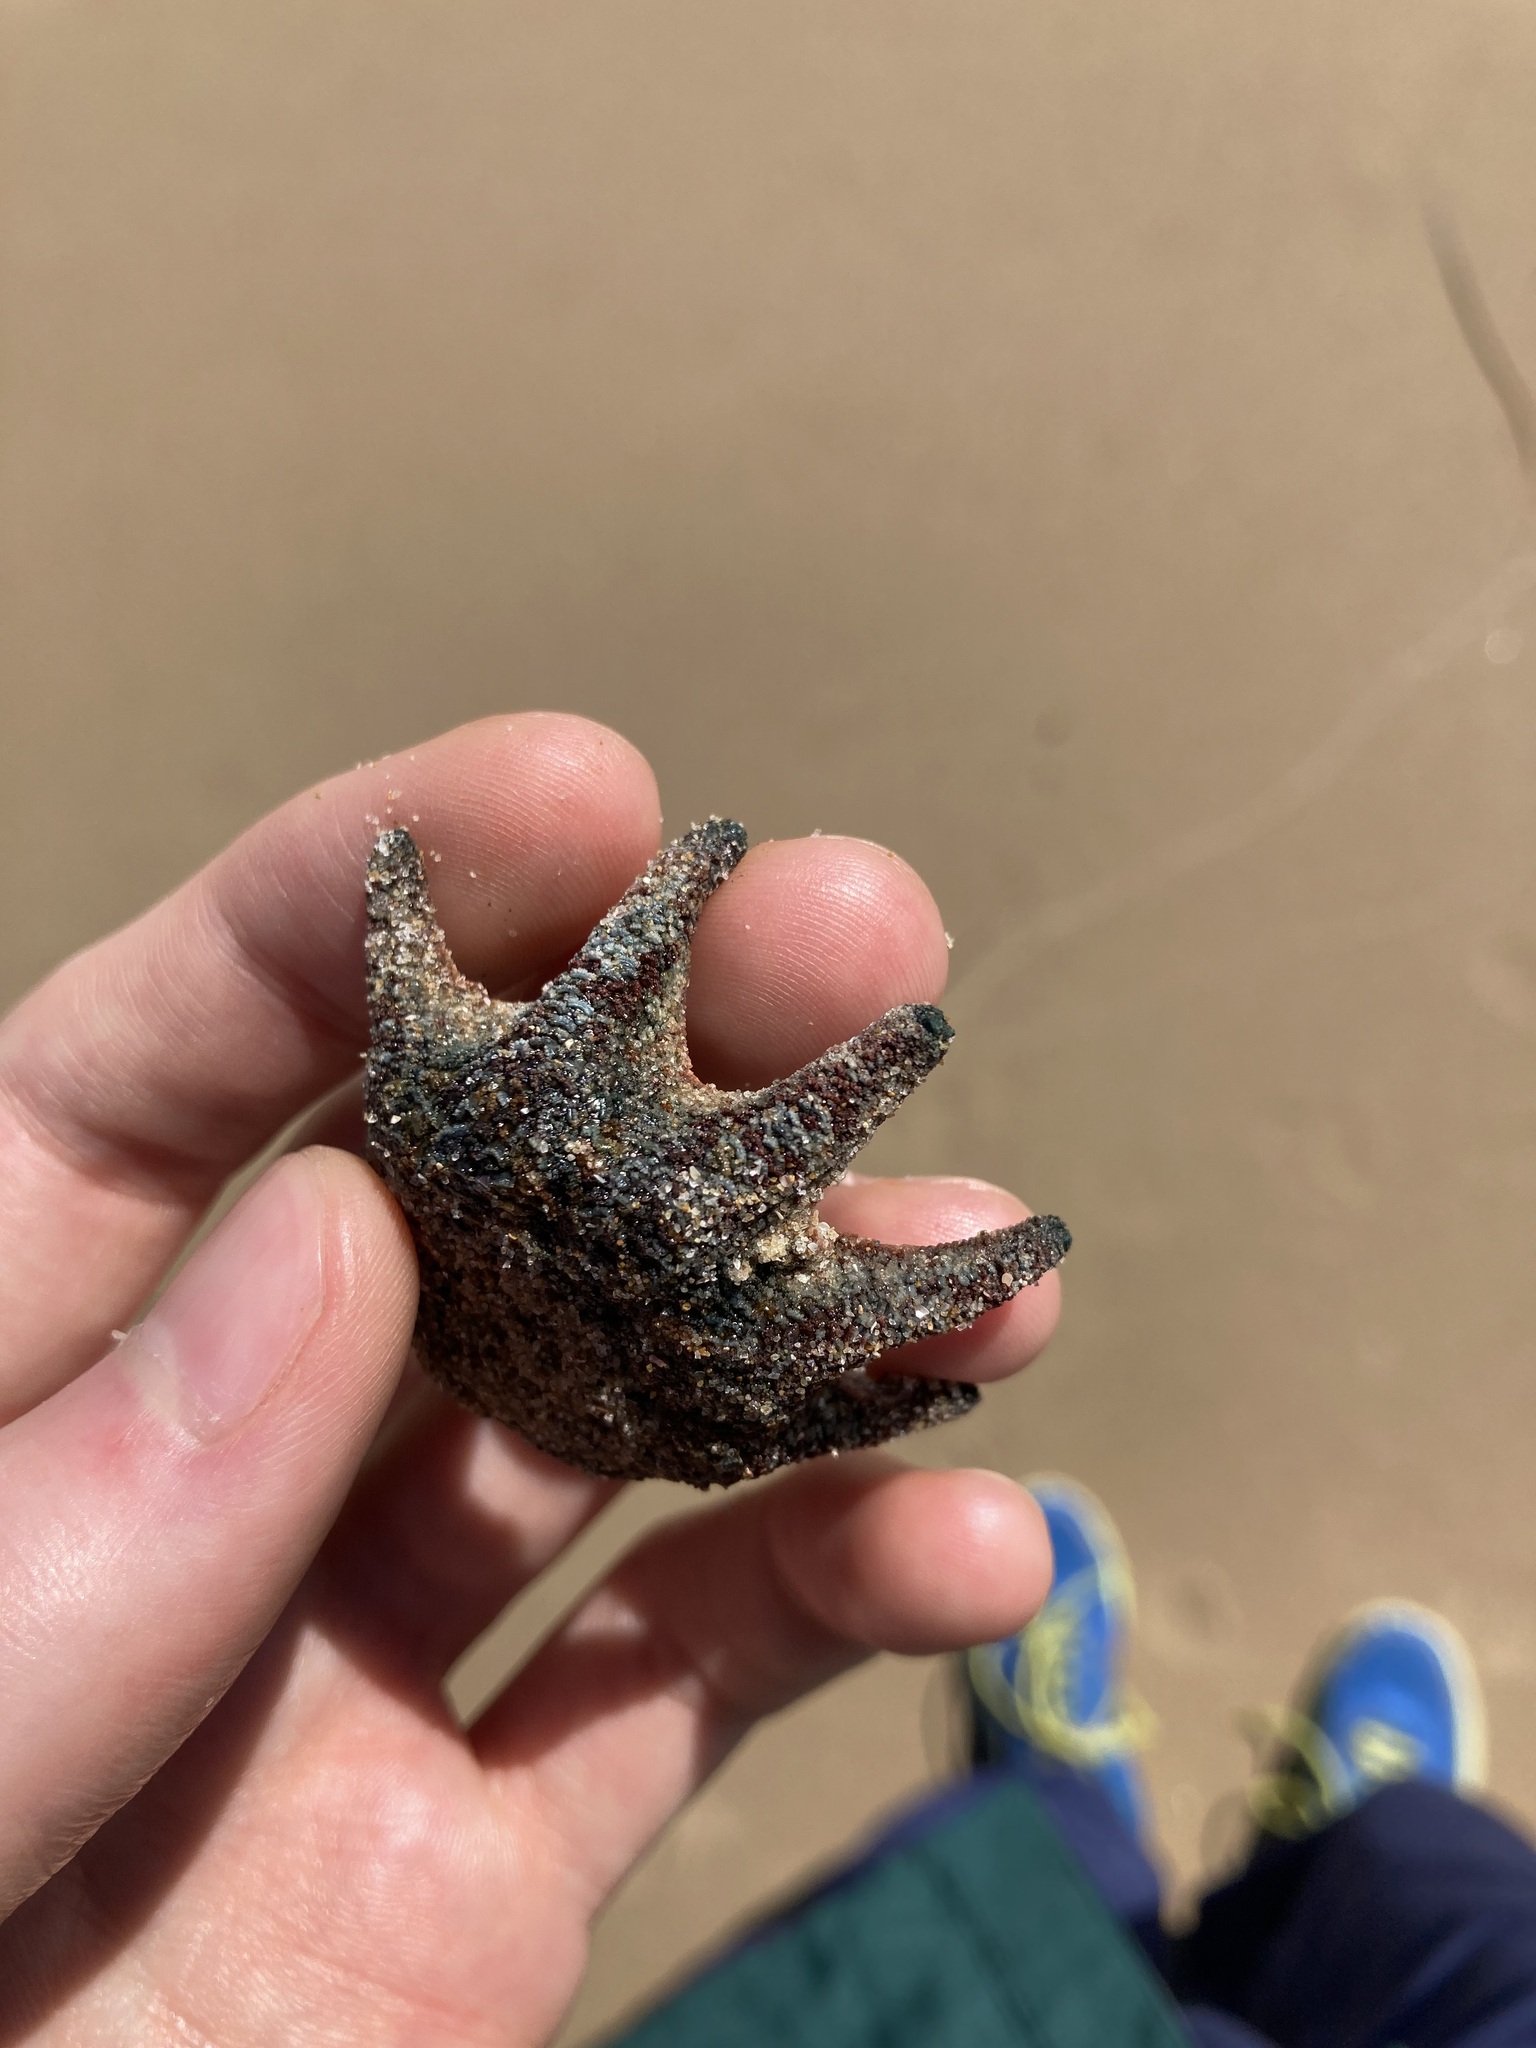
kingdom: Animalia
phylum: Echinodermata
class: Asteroidea
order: Valvatida
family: Asterinidae
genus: Meridiastra
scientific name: Meridiastra calcar
